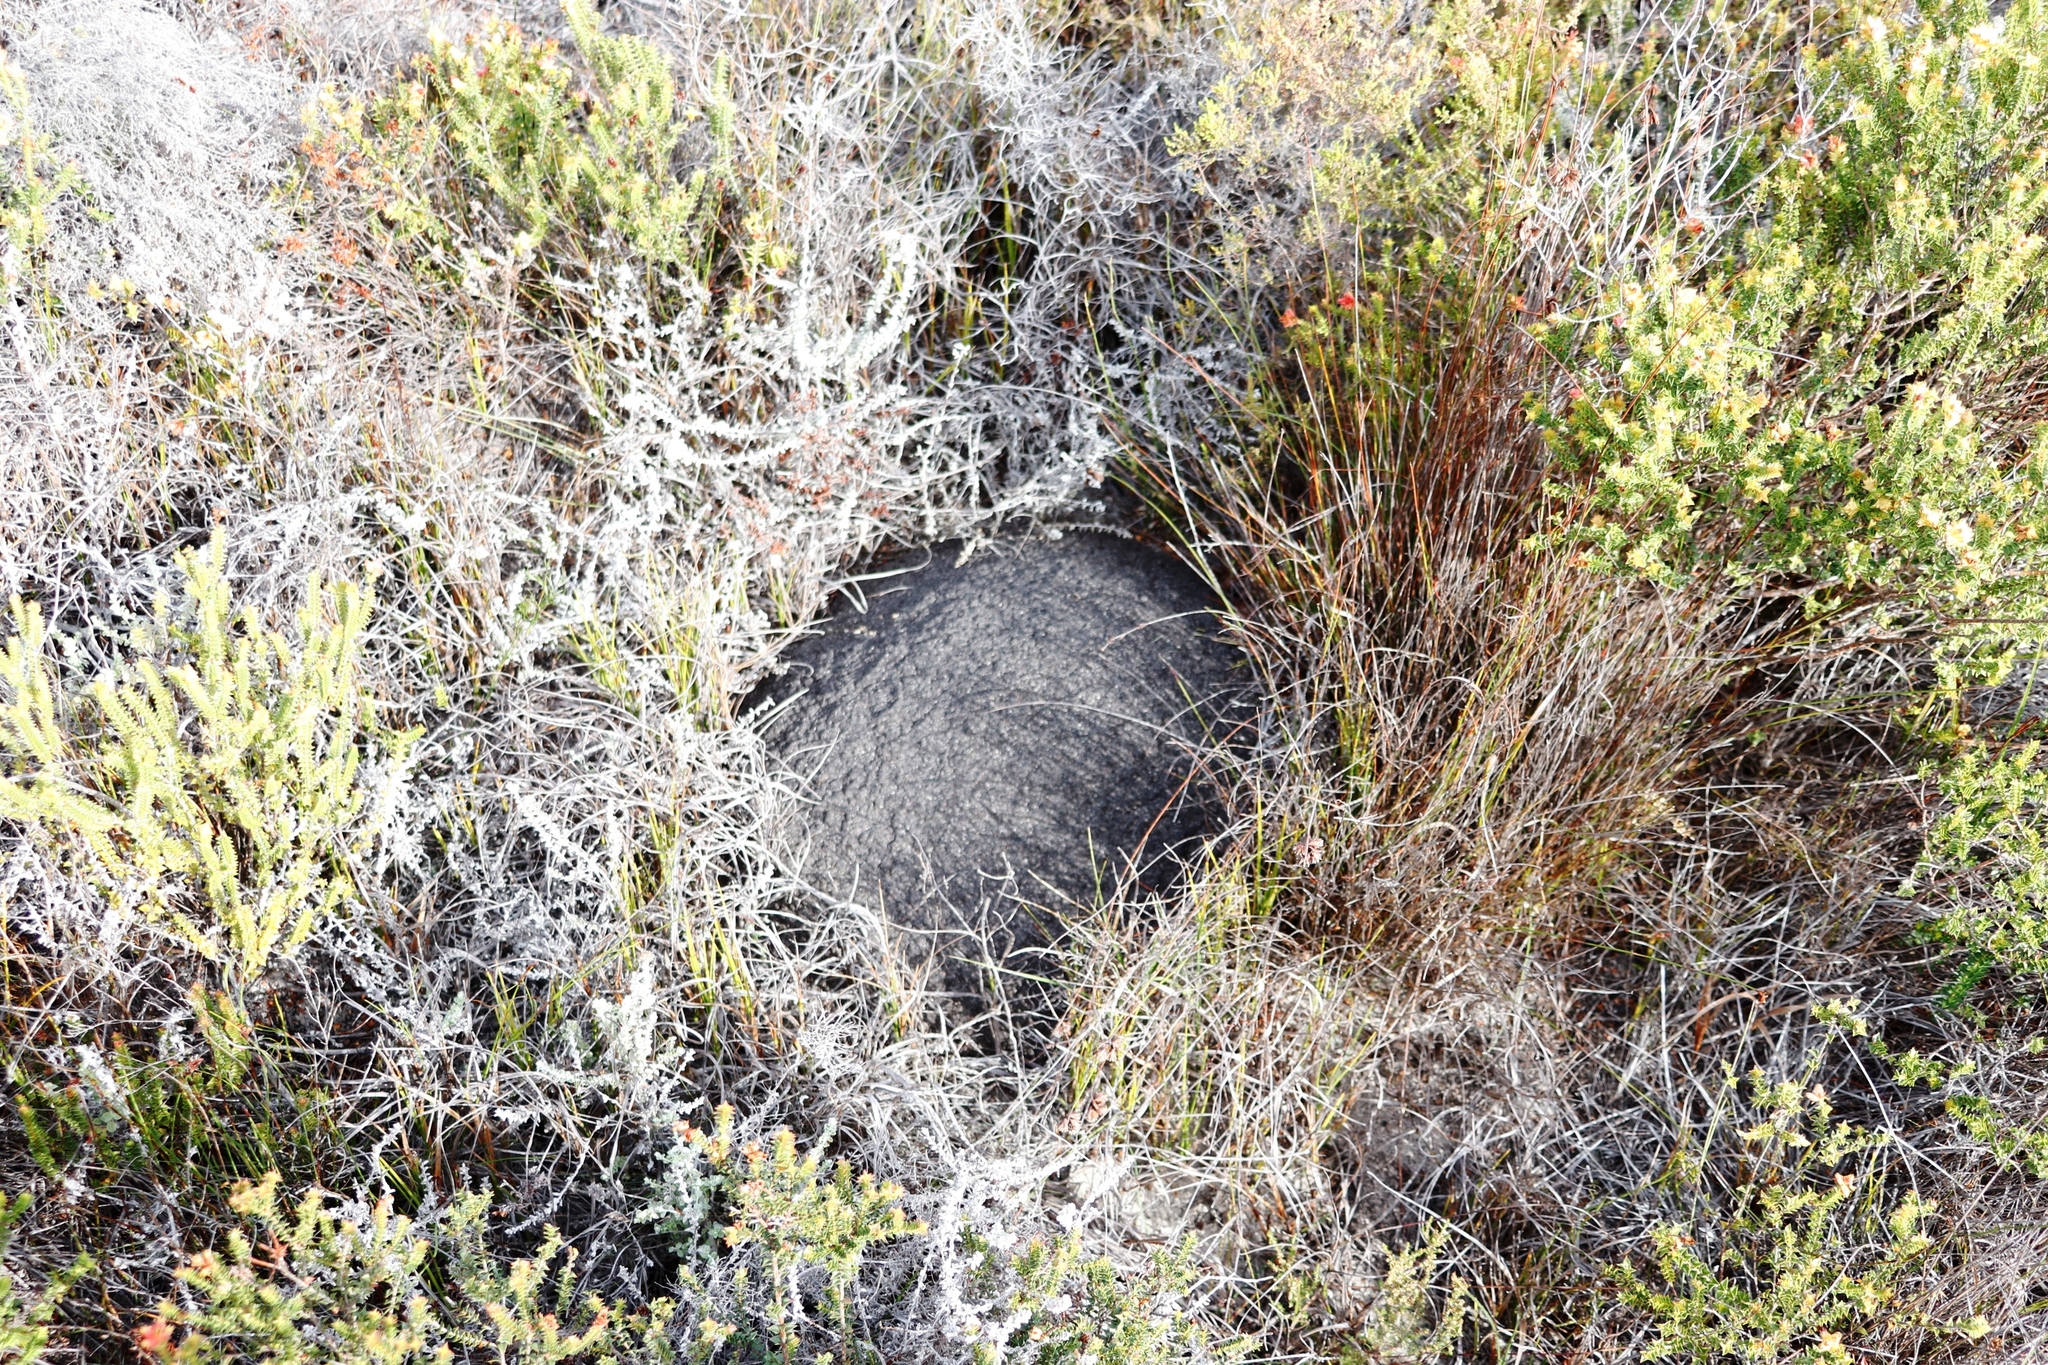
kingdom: Animalia
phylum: Arthropoda
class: Insecta
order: Blattodea
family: Termitidae
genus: Amitermes
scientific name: Amitermes hastatus
